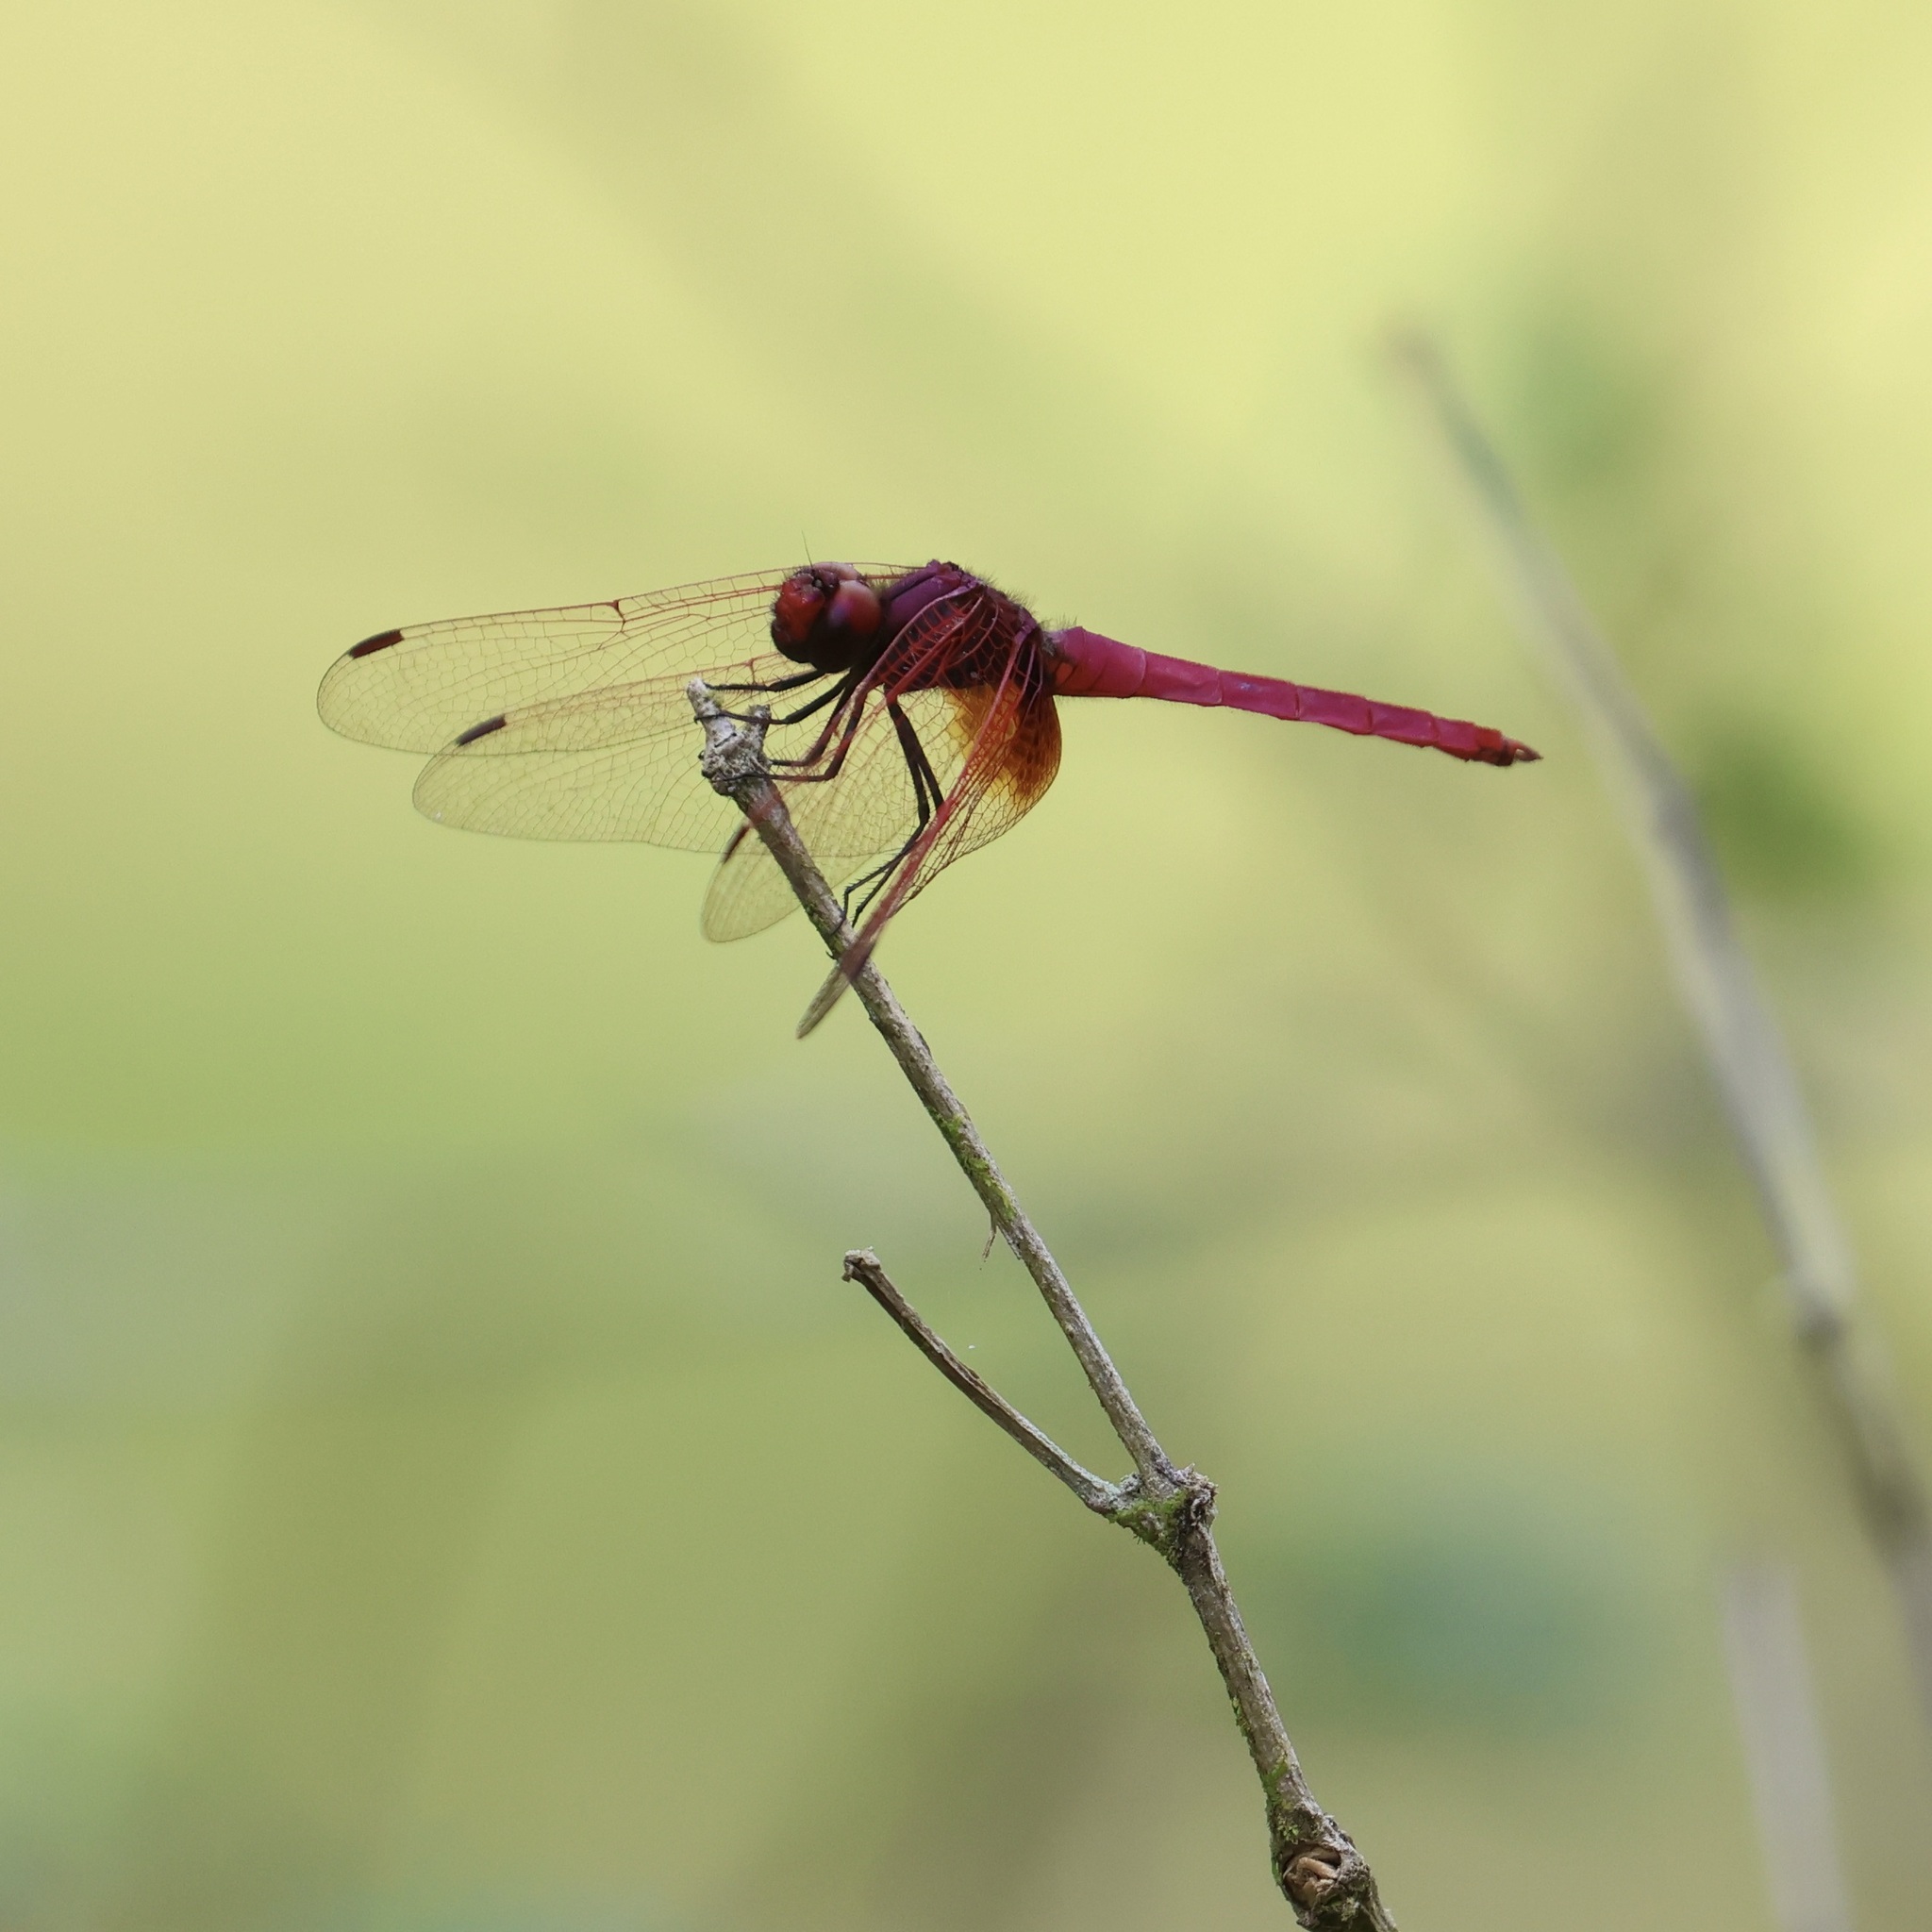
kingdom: Animalia
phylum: Arthropoda
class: Insecta
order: Odonata
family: Libellulidae
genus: Trithemis
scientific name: Trithemis aurora
